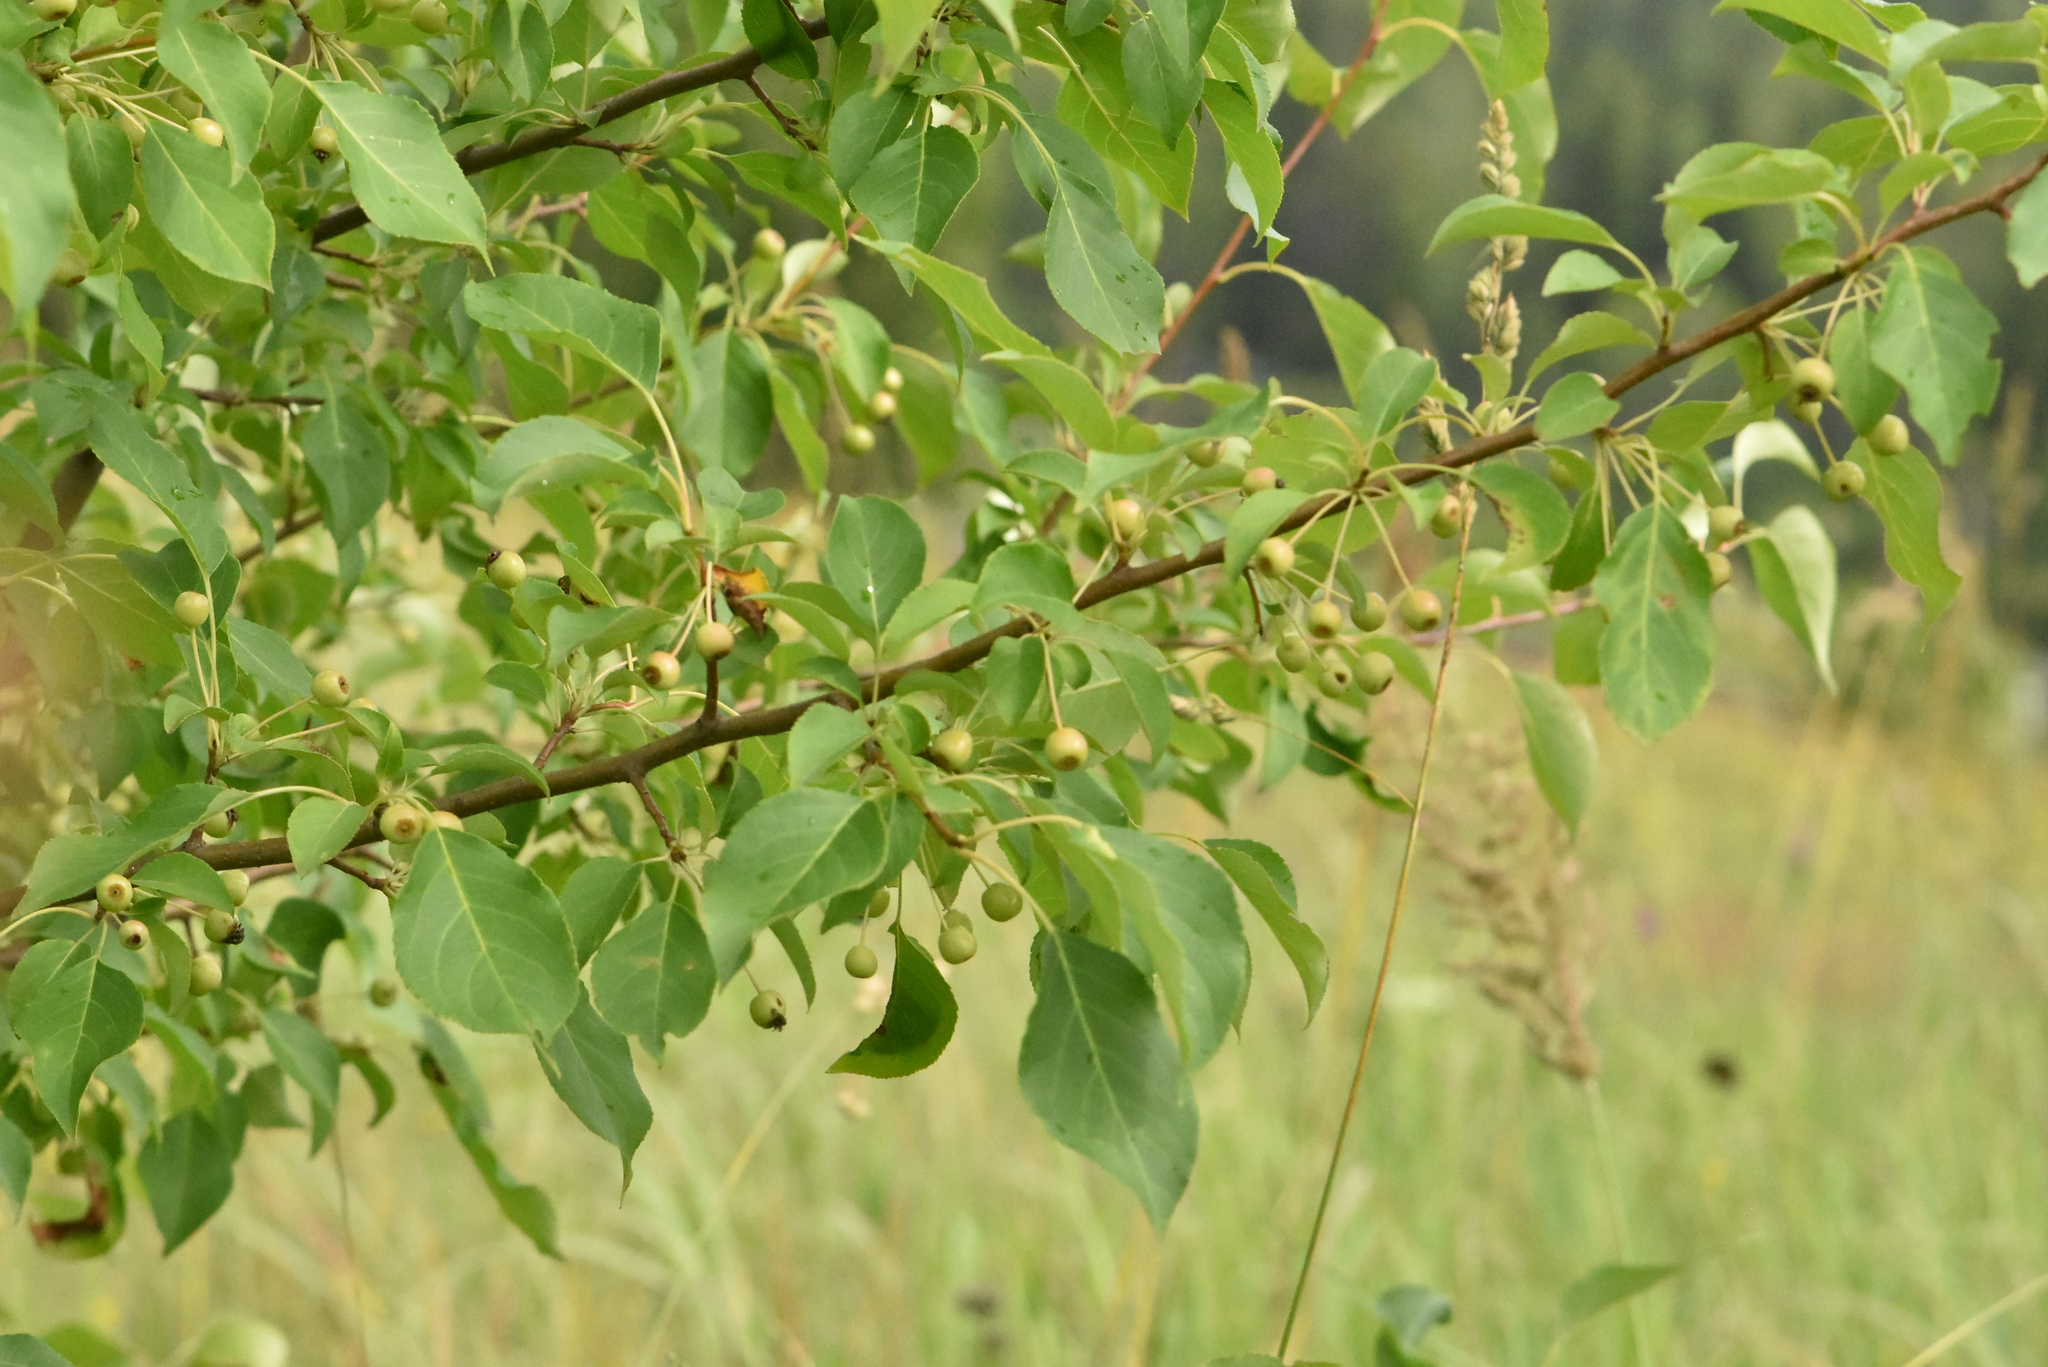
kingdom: Plantae
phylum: Tracheophyta
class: Magnoliopsida
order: Rosales
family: Rosaceae
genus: Malus
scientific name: Malus baccata
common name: Siberian crab
